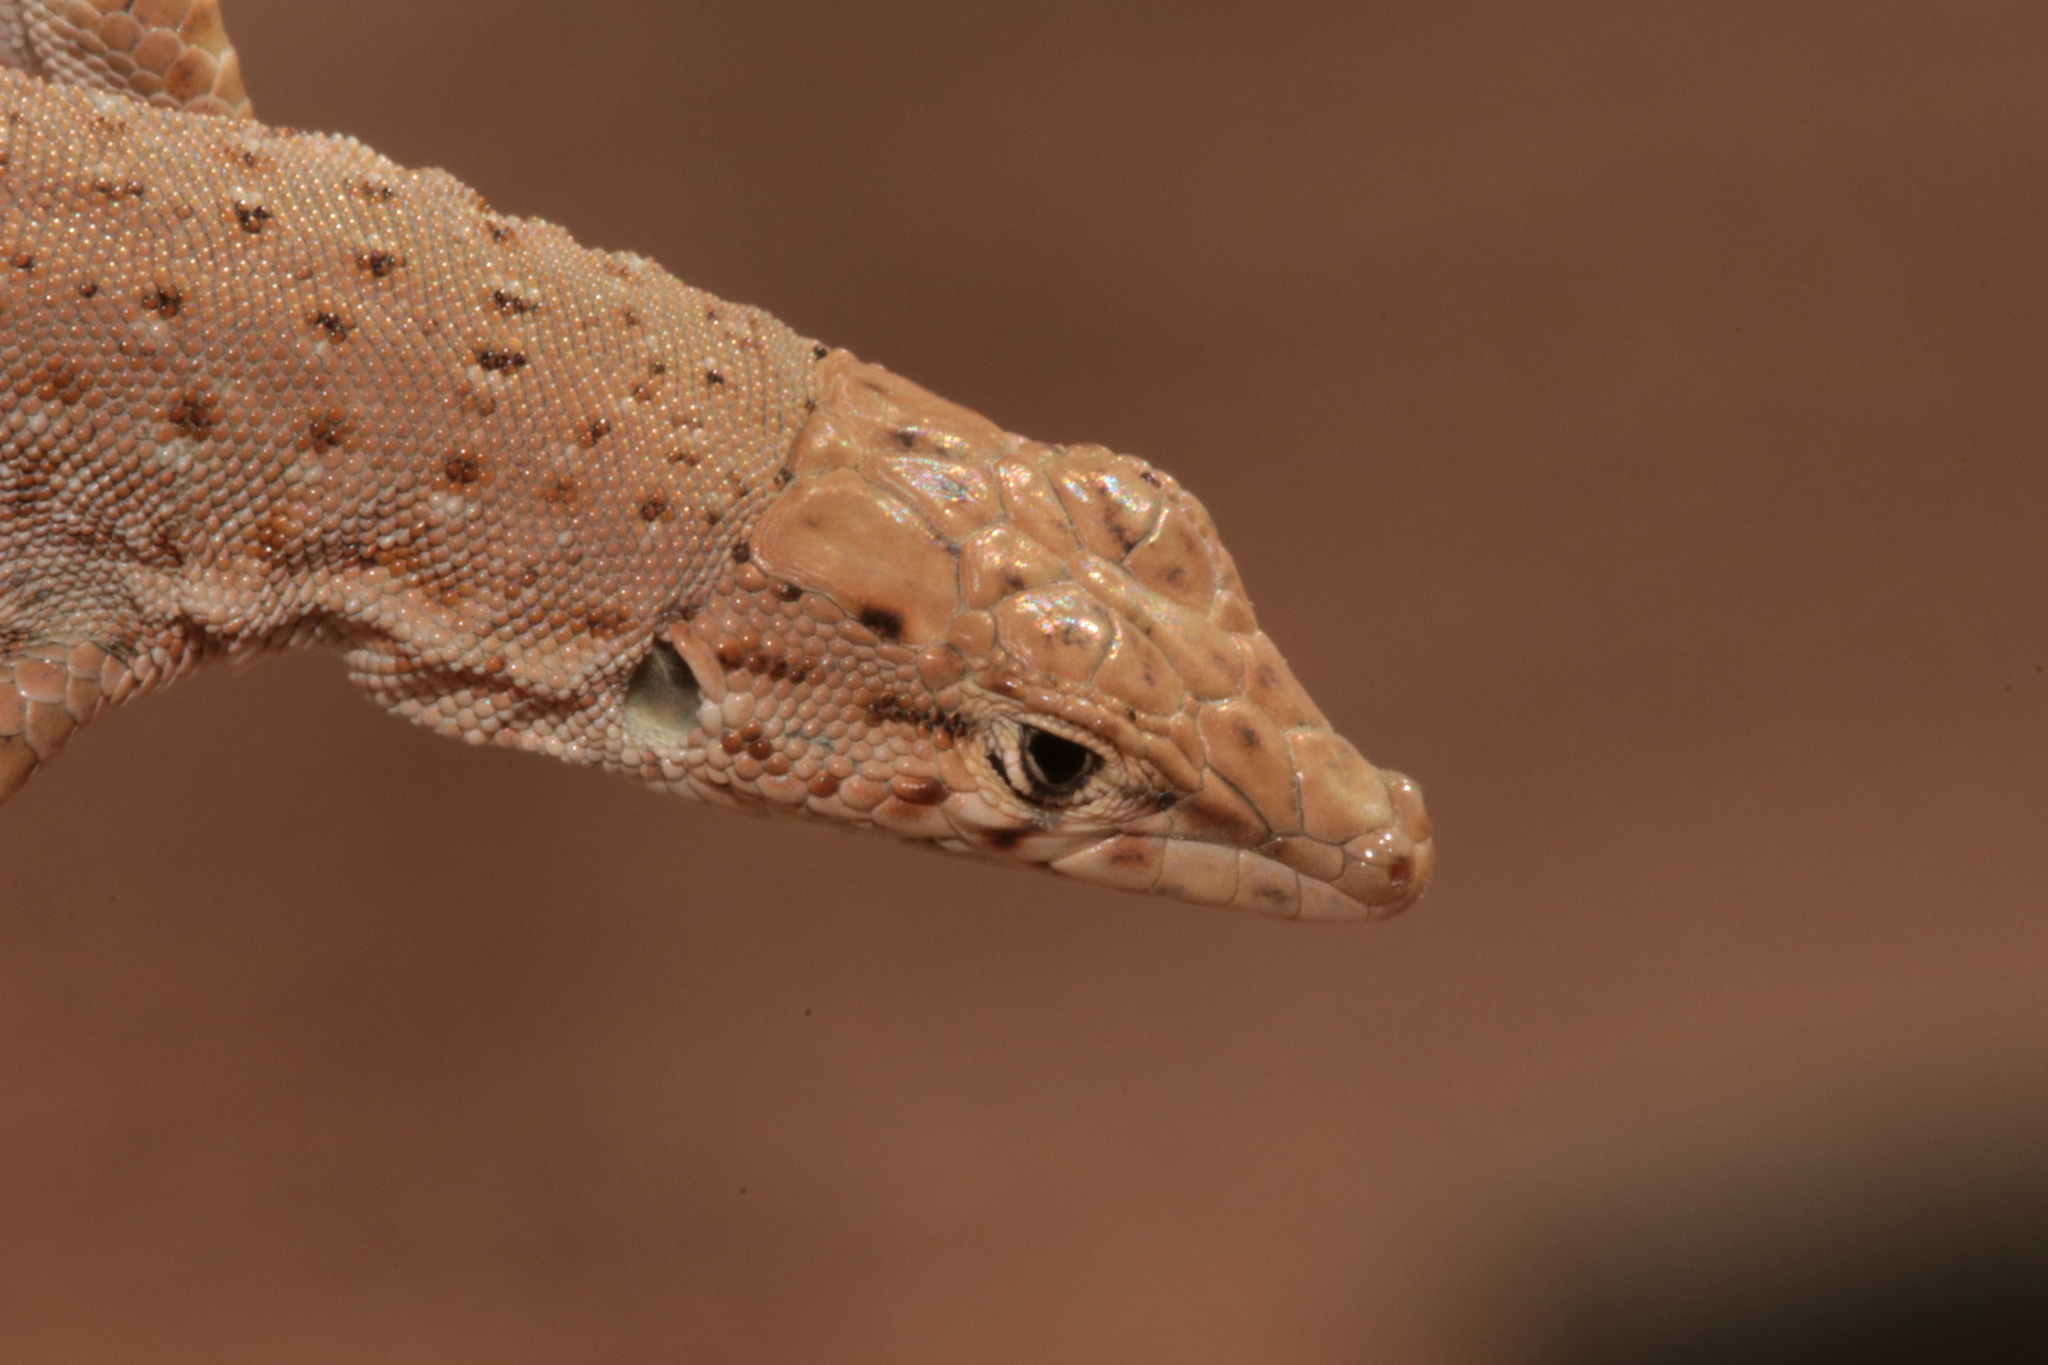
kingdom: Animalia
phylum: Chordata
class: Squamata
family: Lacertidae
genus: Mesalina
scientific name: Mesalina guttulata
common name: Desert lacerta
